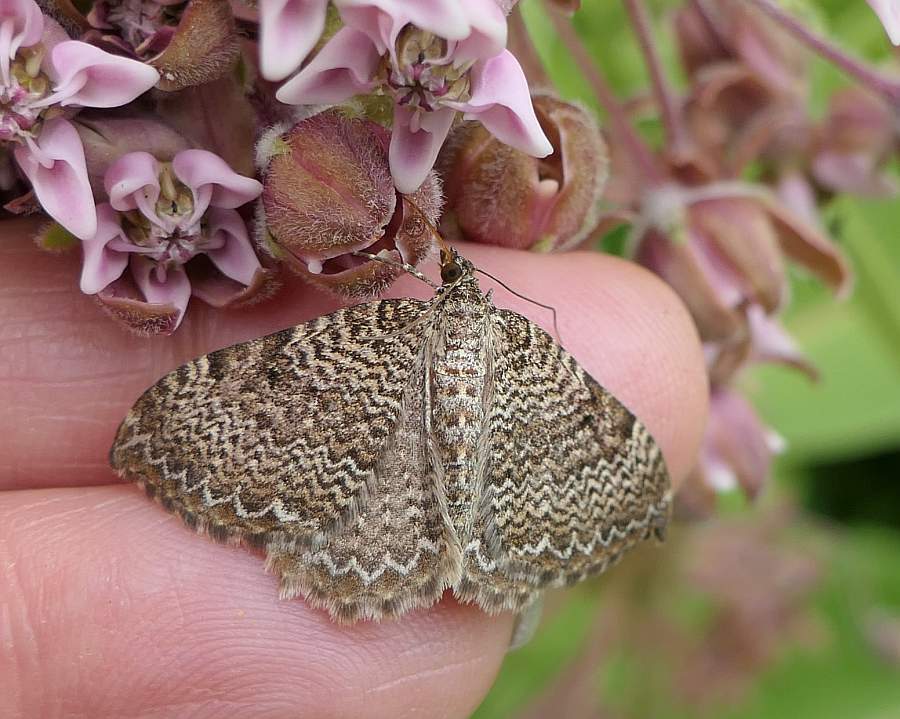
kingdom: Animalia
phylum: Arthropoda
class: Insecta
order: Lepidoptera
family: Geometridae
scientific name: Geometridae
